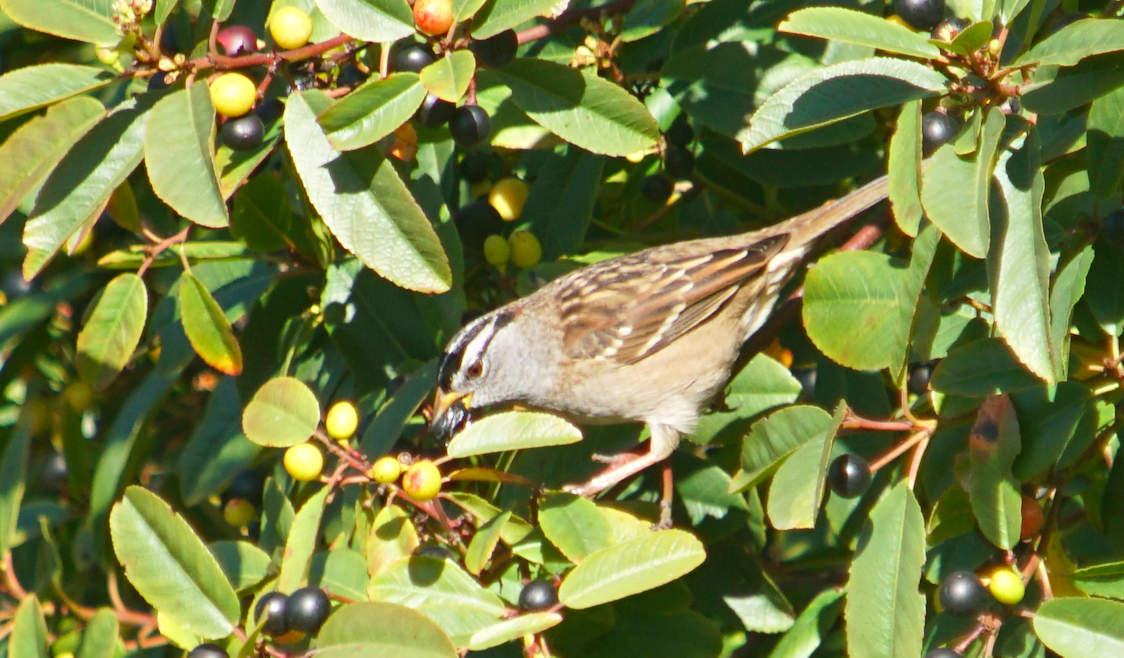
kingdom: Animalia
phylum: Chordata
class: Aves
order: Passeriformes
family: Passerellidae
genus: Zonotrichia
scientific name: Zonotrichia leucophrys
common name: White-crowned sparrow
